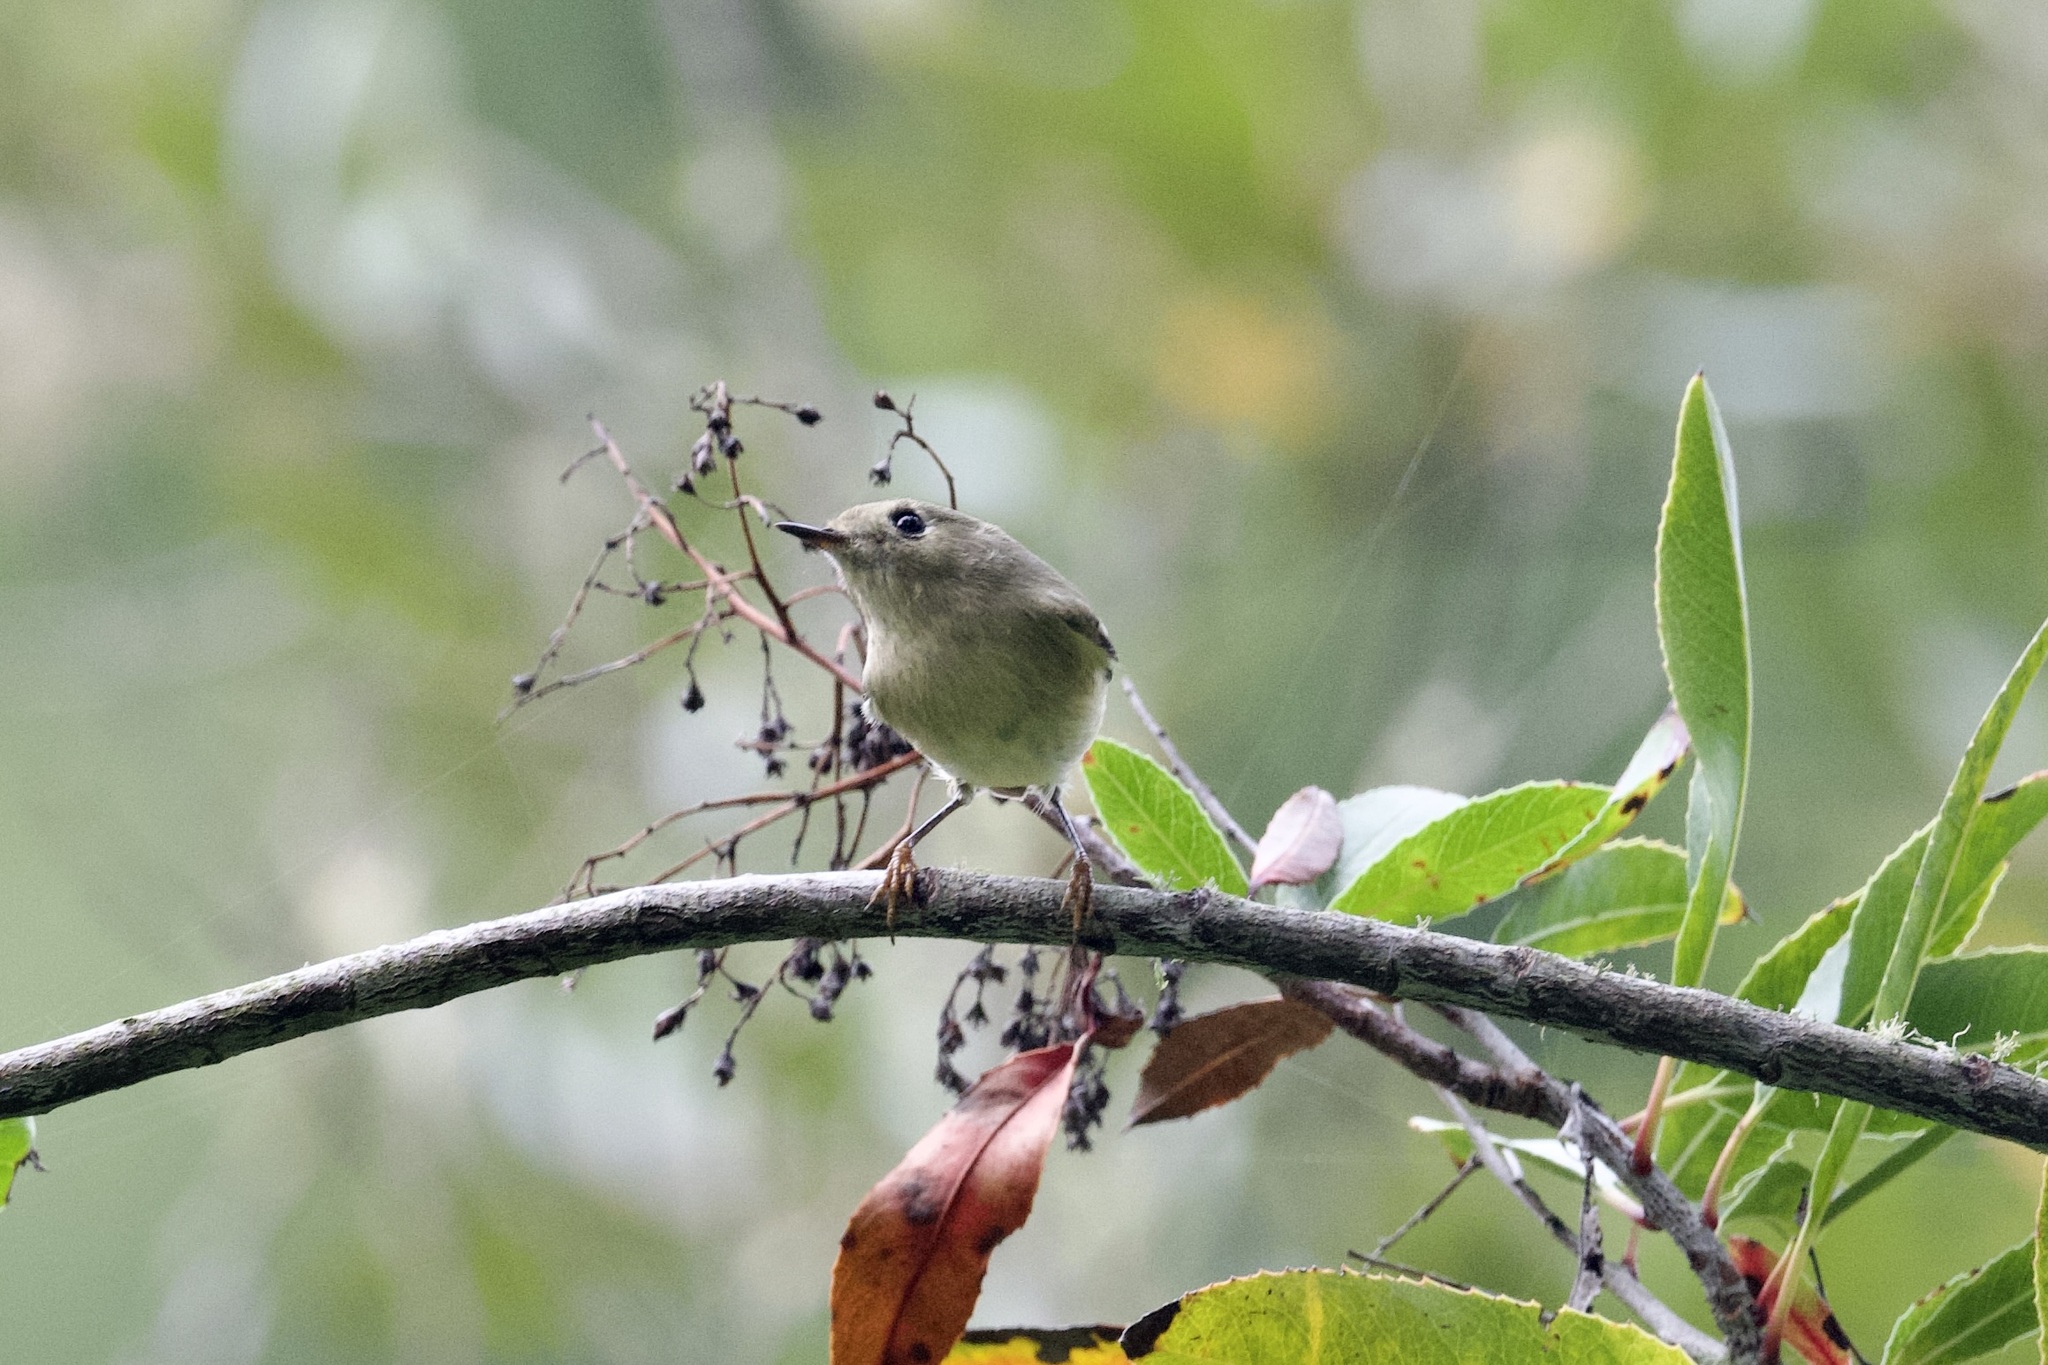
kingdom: Animalia
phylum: Chordata
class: Aves
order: Passeriformes
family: Regulidae
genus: Regulus
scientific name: Regulus calendula
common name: Ruby-crowned kinglet
